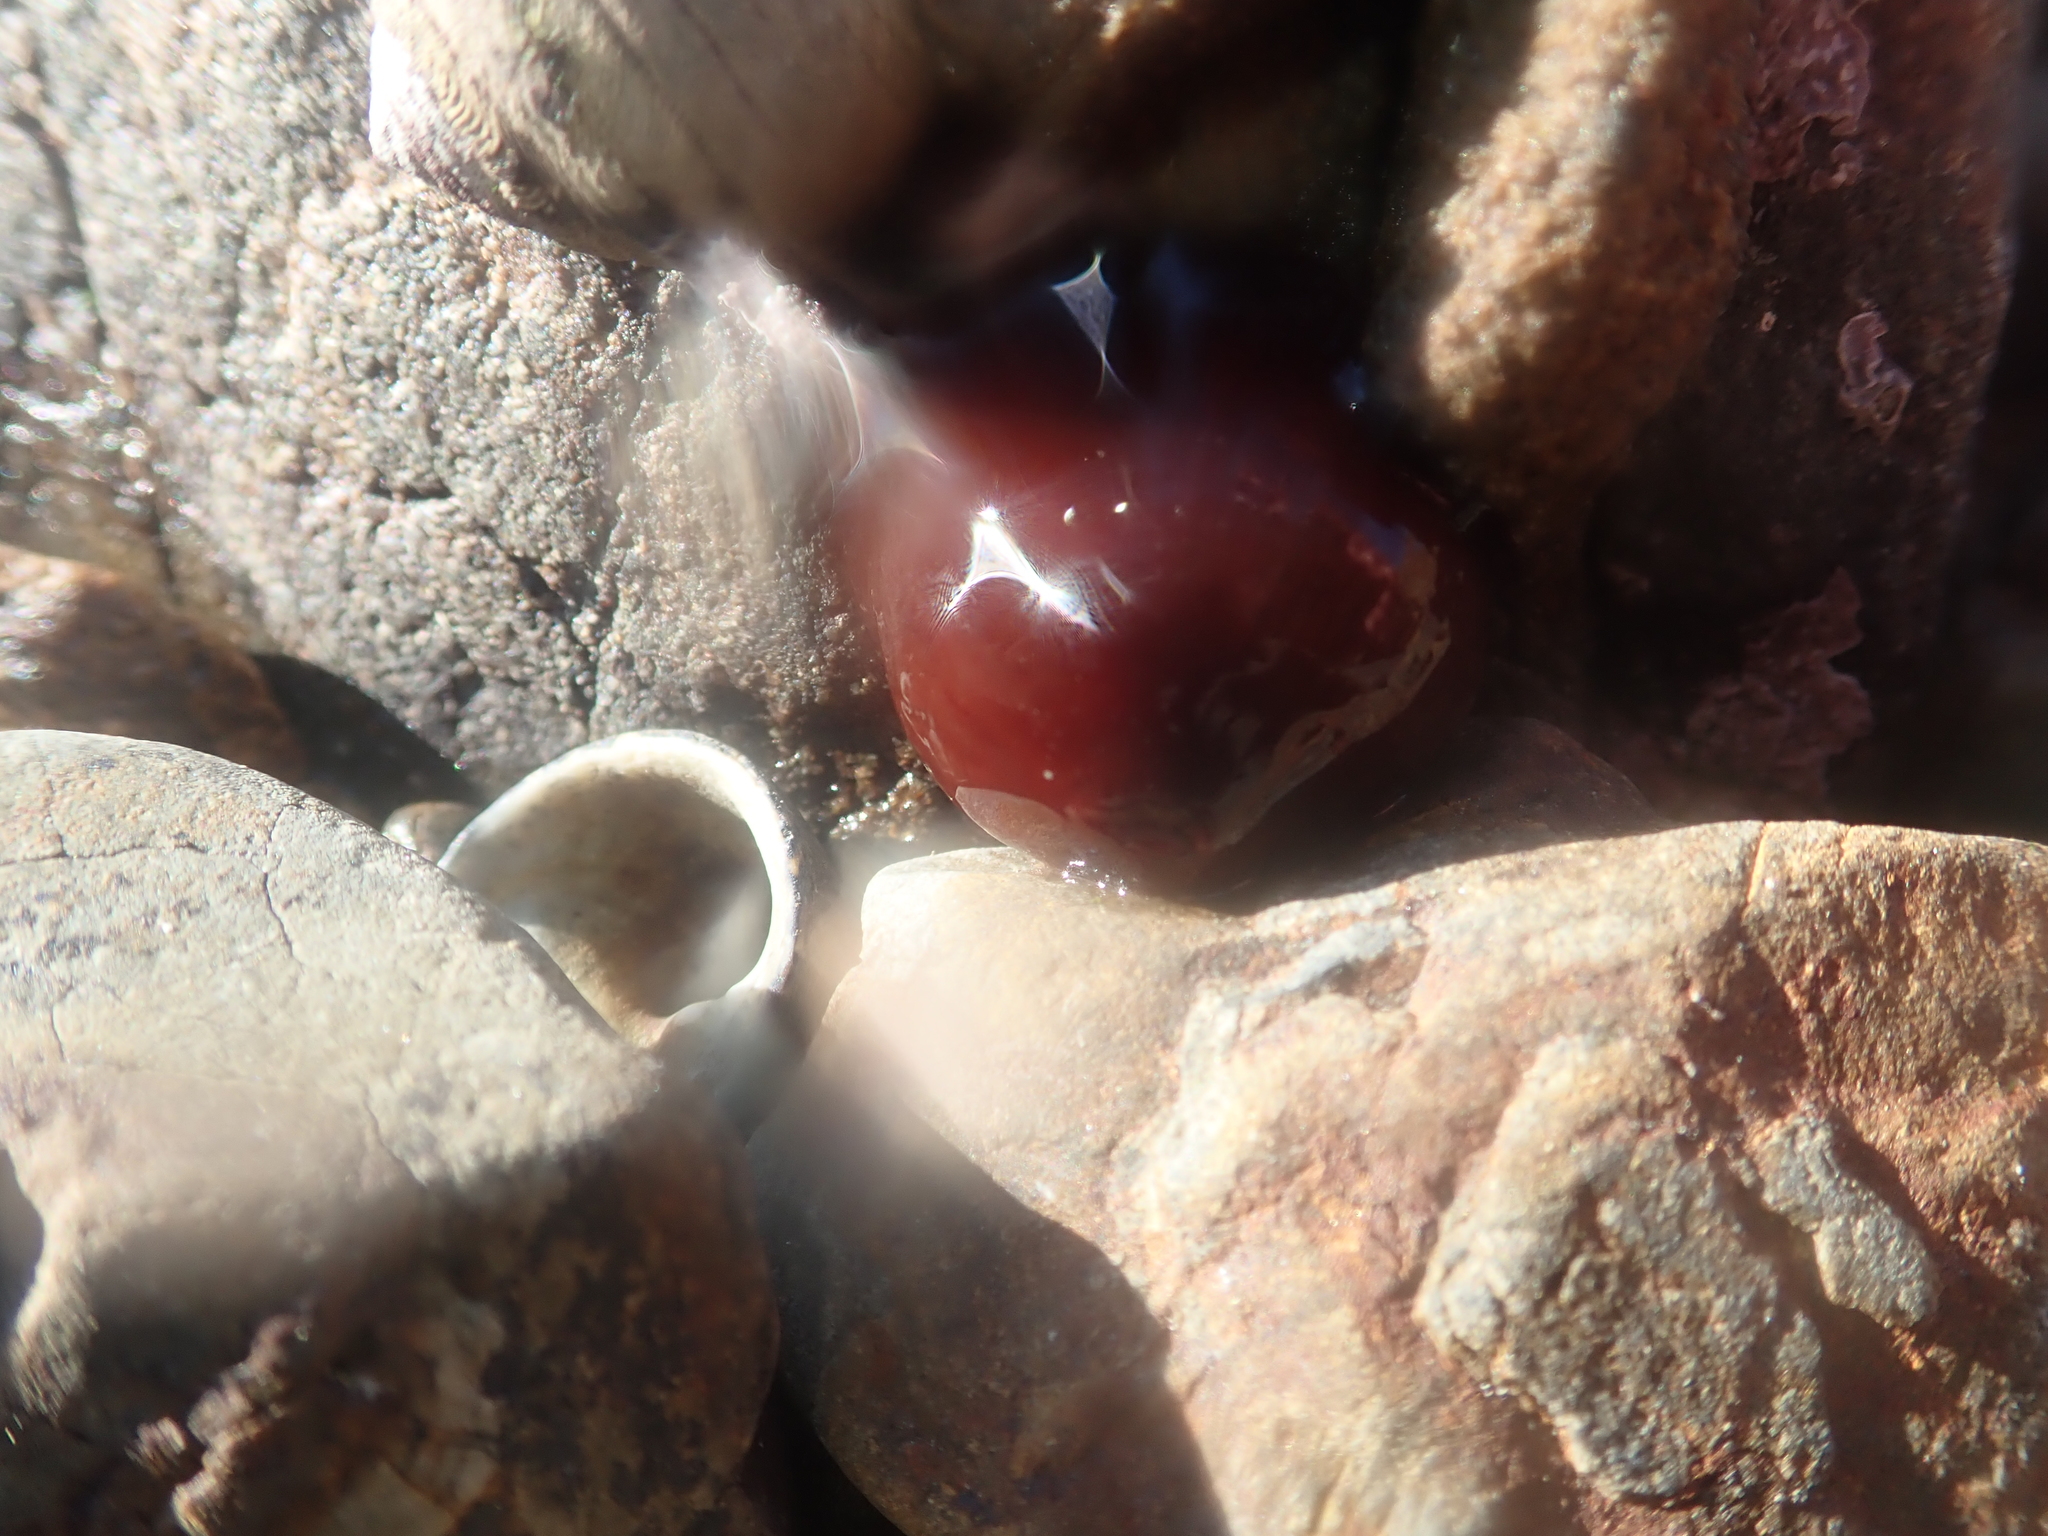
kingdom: Animalia
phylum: Cnidaria
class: Anthozoa
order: Actiniaria
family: Actiniidae
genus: Actinia
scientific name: Actinia tenebrosa
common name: Waratah anemone
